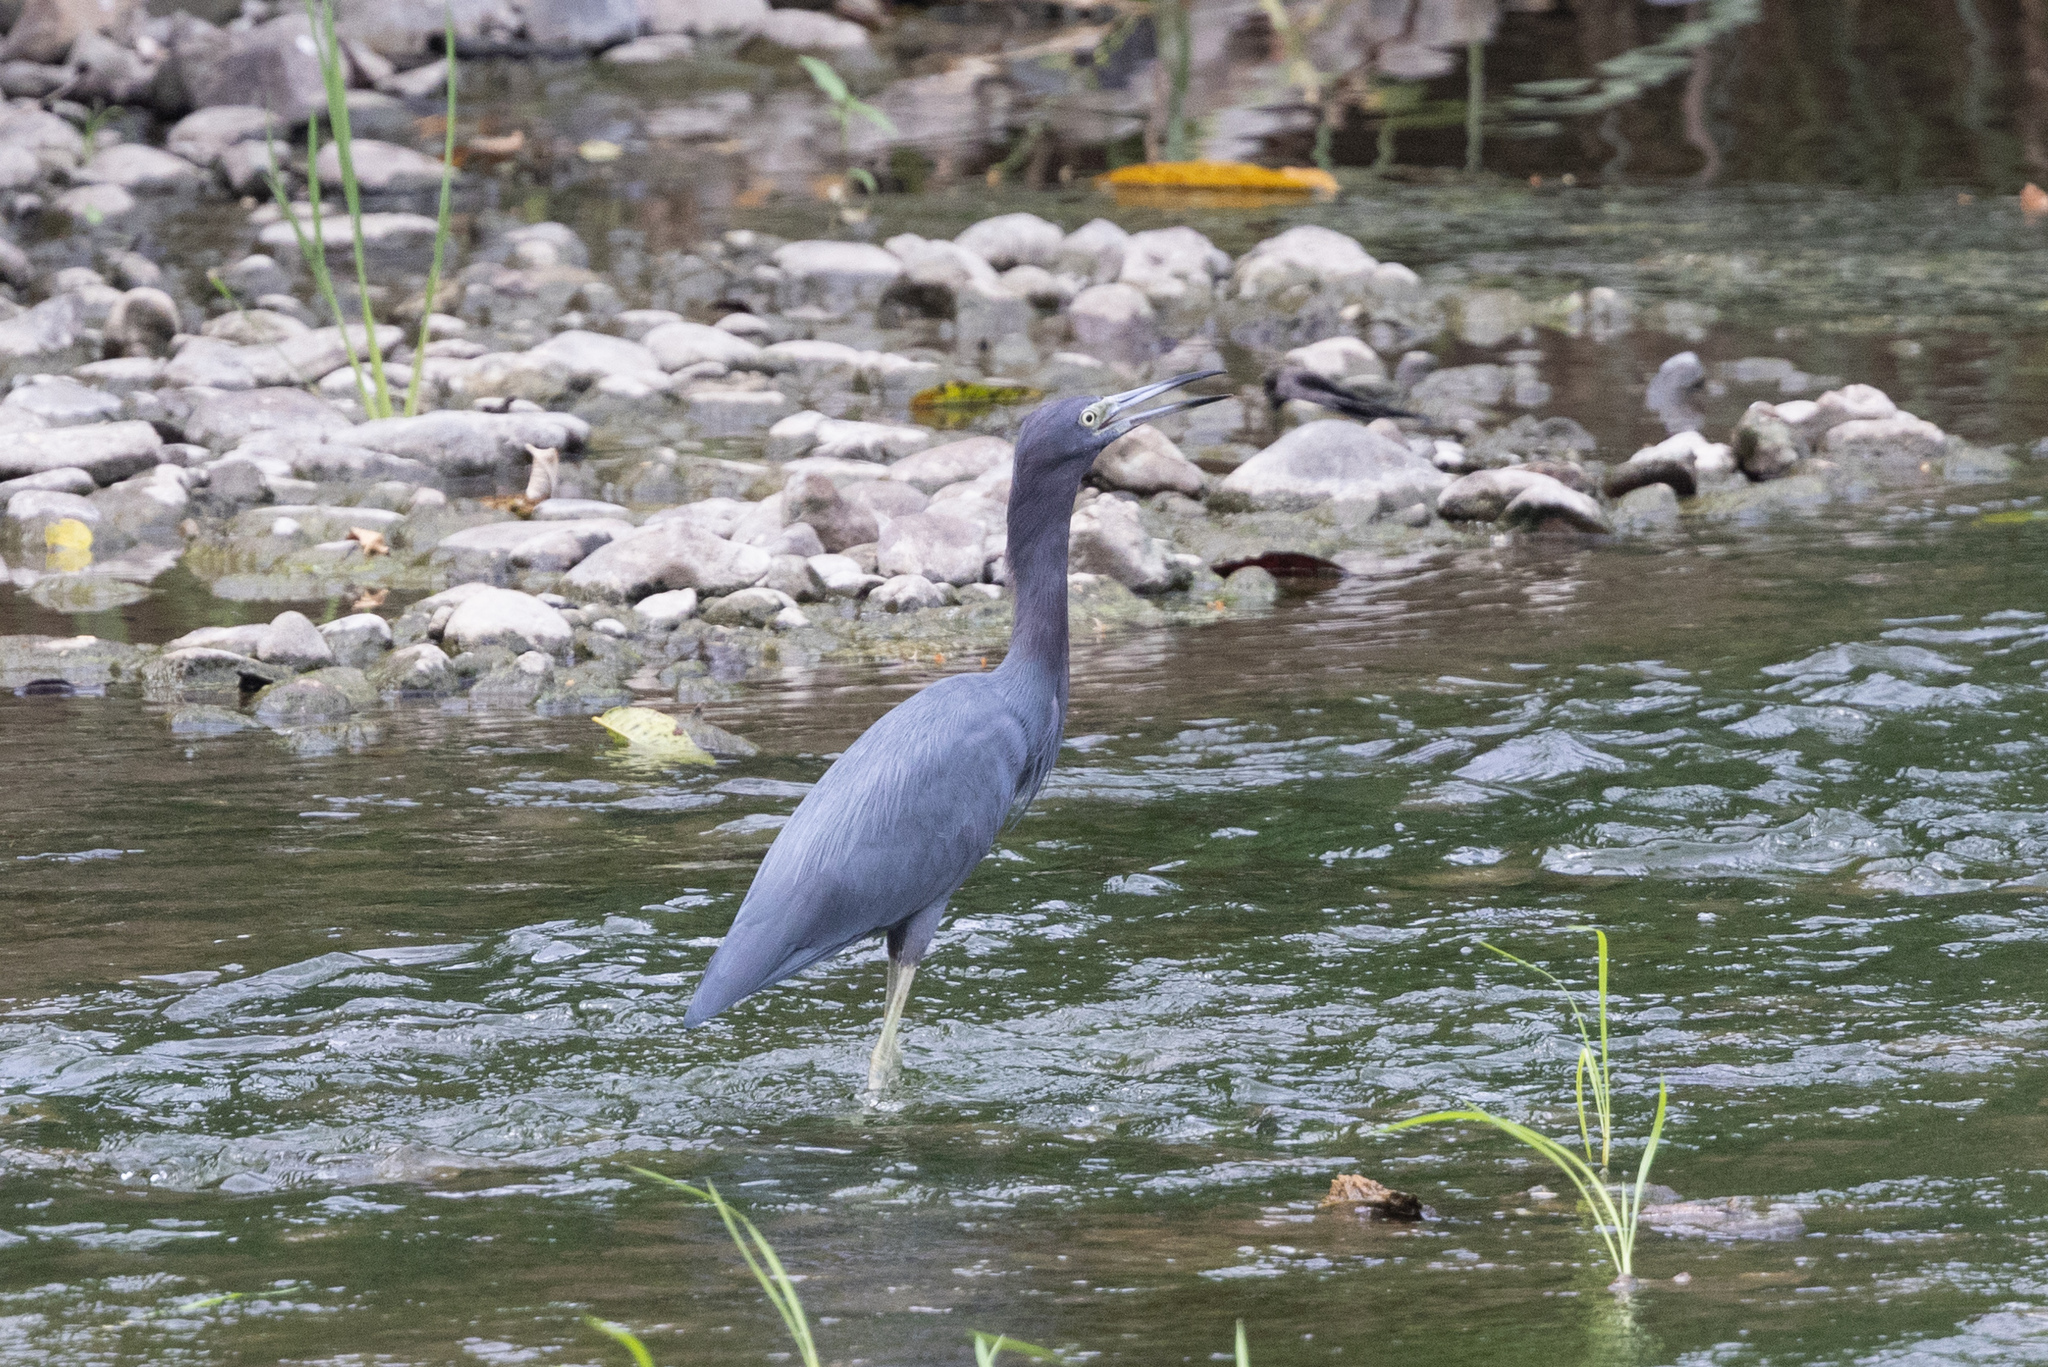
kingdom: Animalia
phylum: Chordata
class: Aves
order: Pelecaniformes
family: Ardeidae
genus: Egretta
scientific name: Egretta caerulea
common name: Little blue heron
